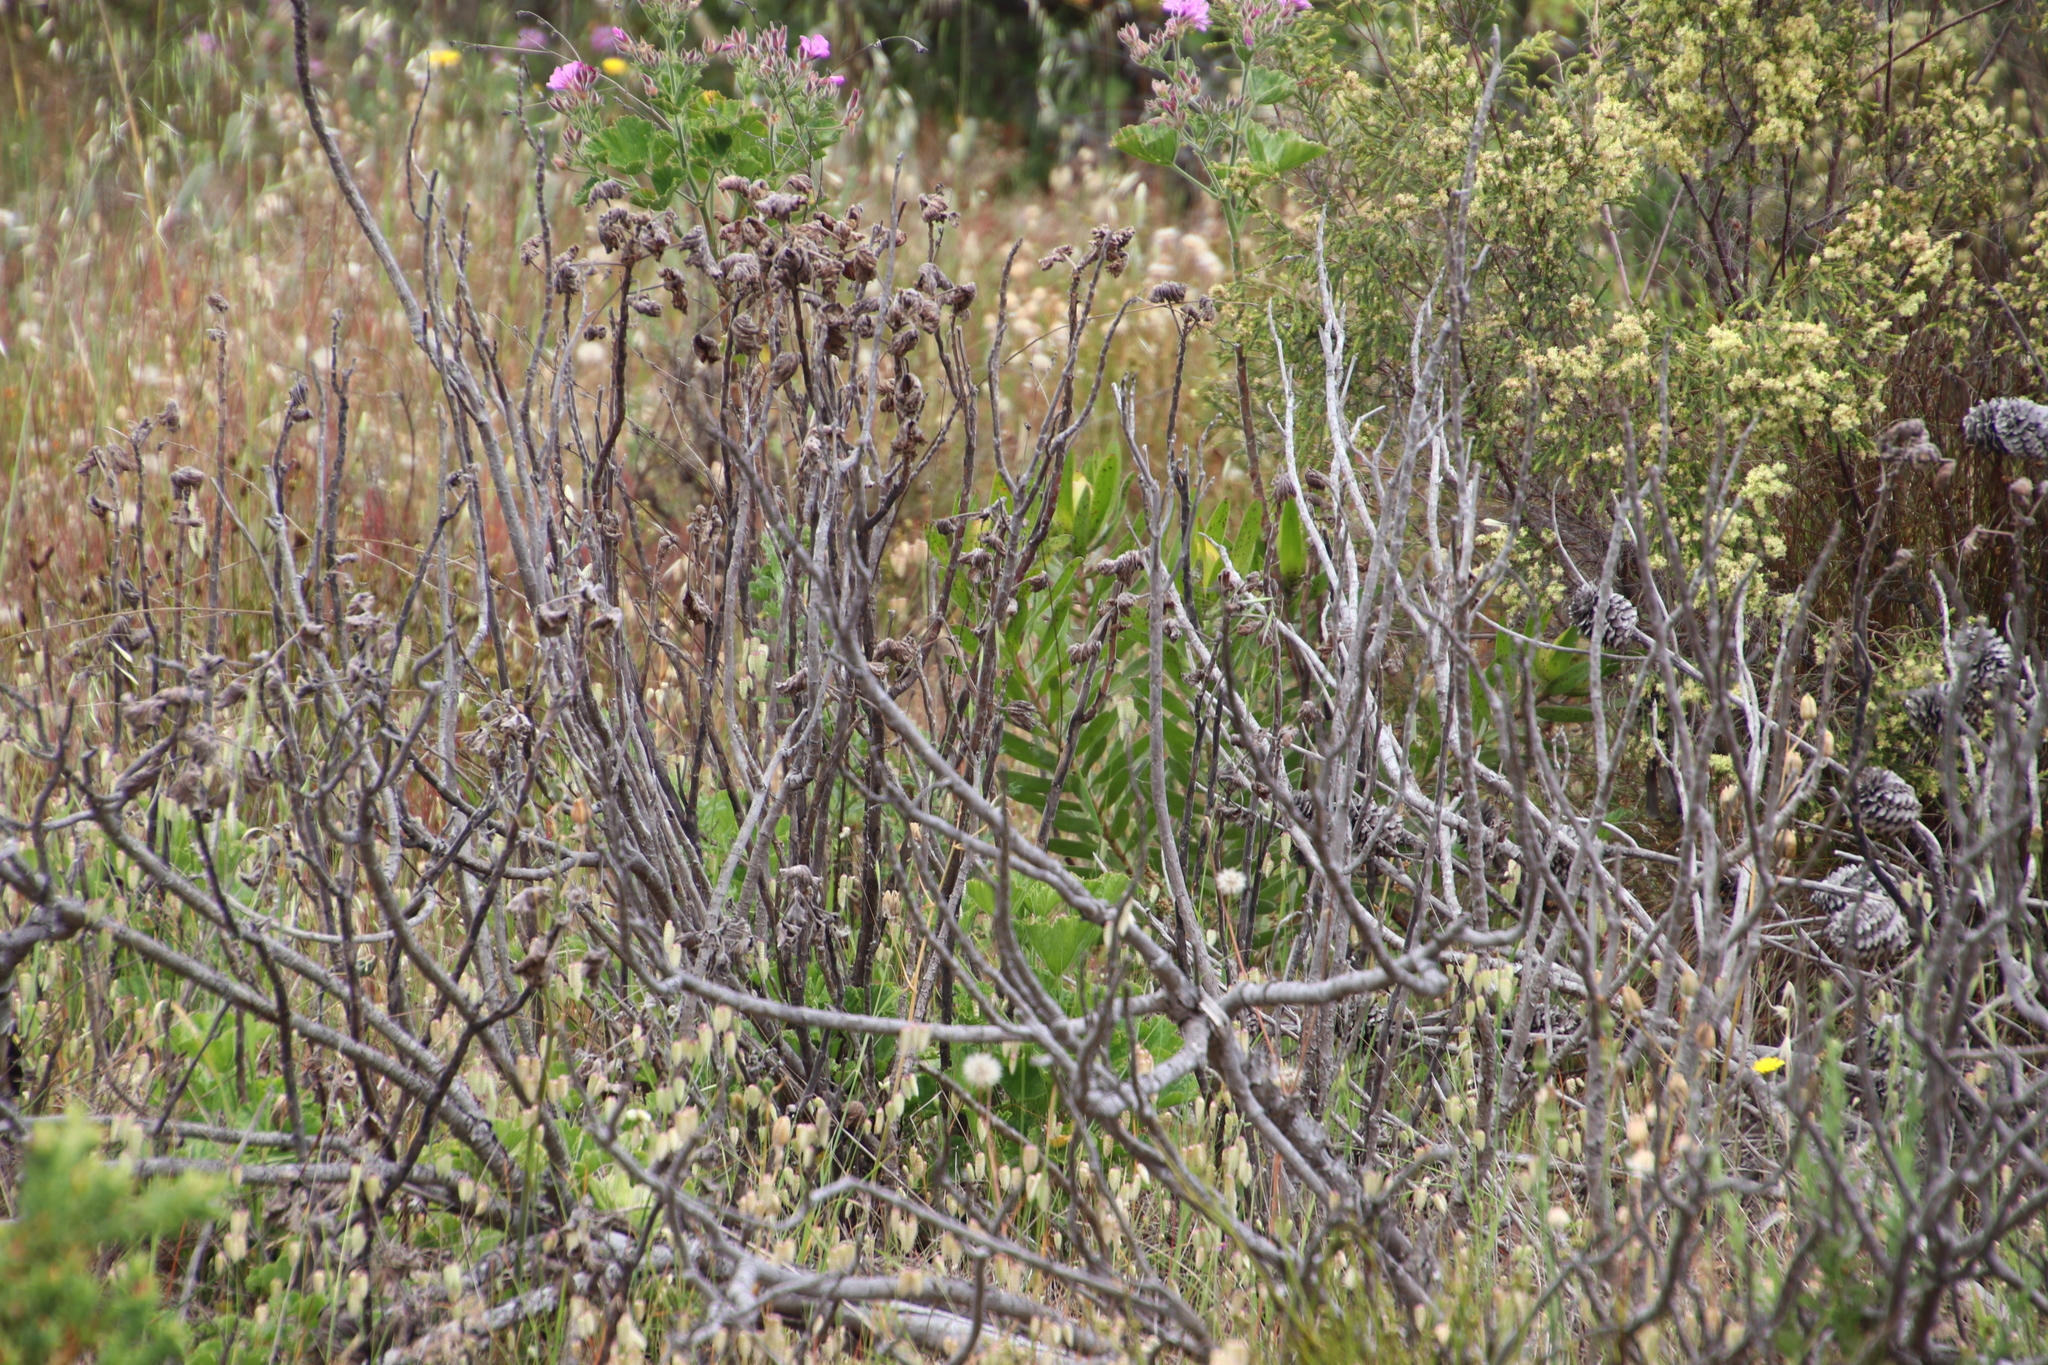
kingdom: Plantae
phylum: Tracheophyta
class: Magnoliopsida
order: Proteales
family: Proteaceae
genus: Leucadendron
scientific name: Leucadendron laureolum
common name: Golden sunshinebush
